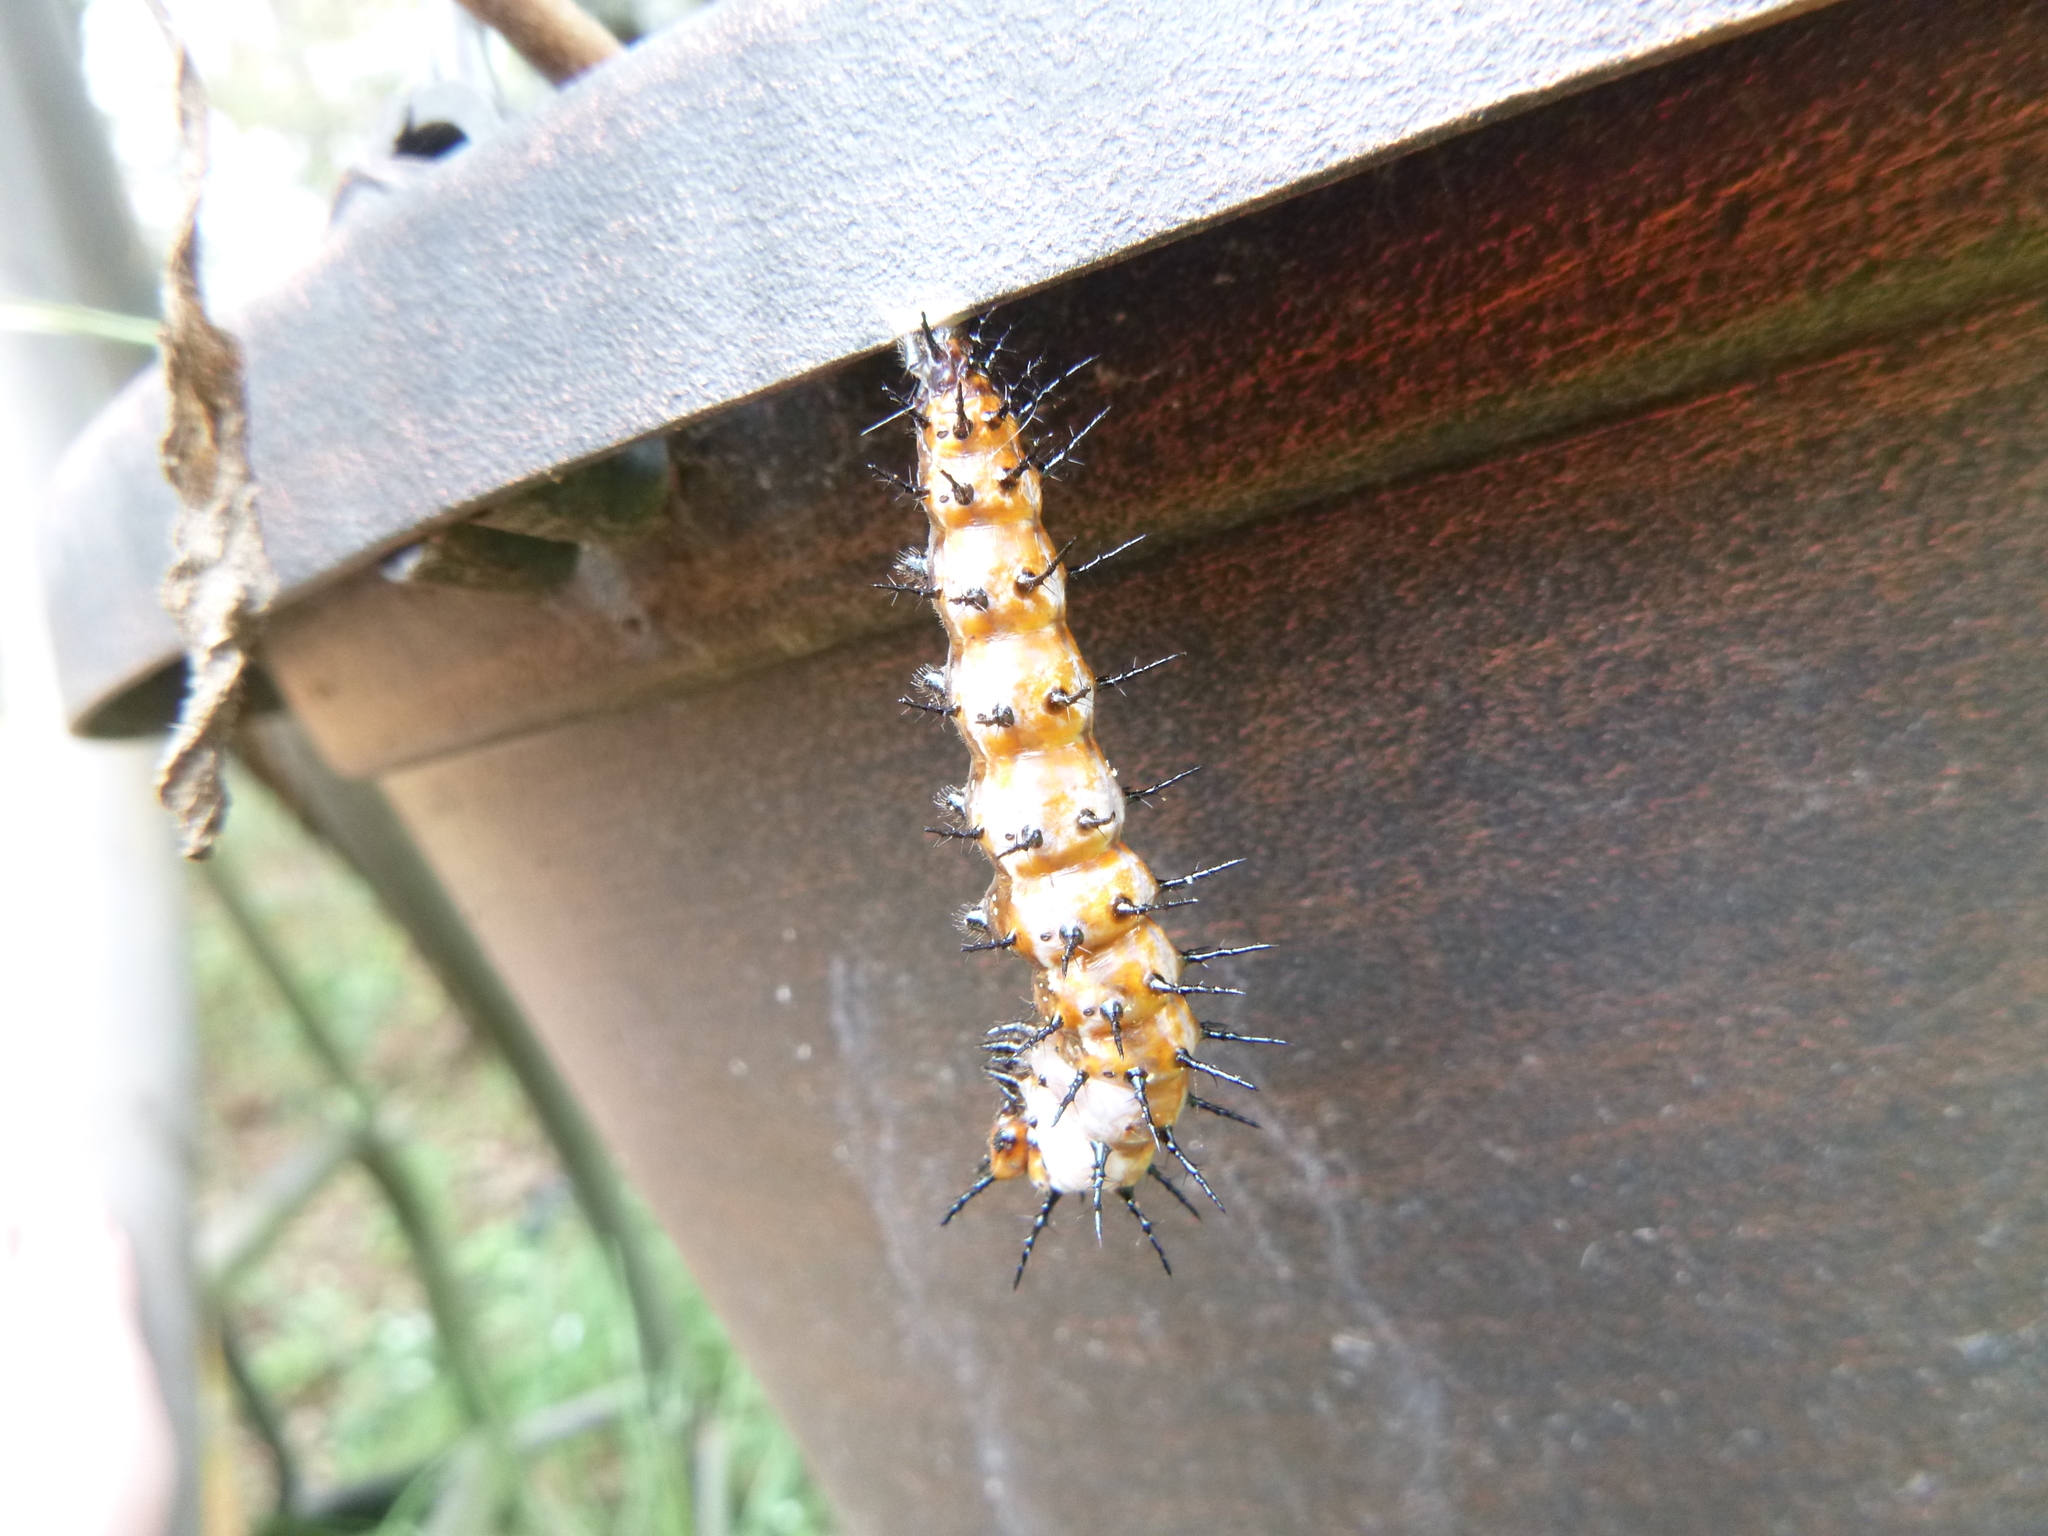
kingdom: Animalia
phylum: Arthropoda
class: Insecta
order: Lepidoptera
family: Nymphalidae
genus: Dione
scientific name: Dione vanillae
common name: Gulf fritillary
